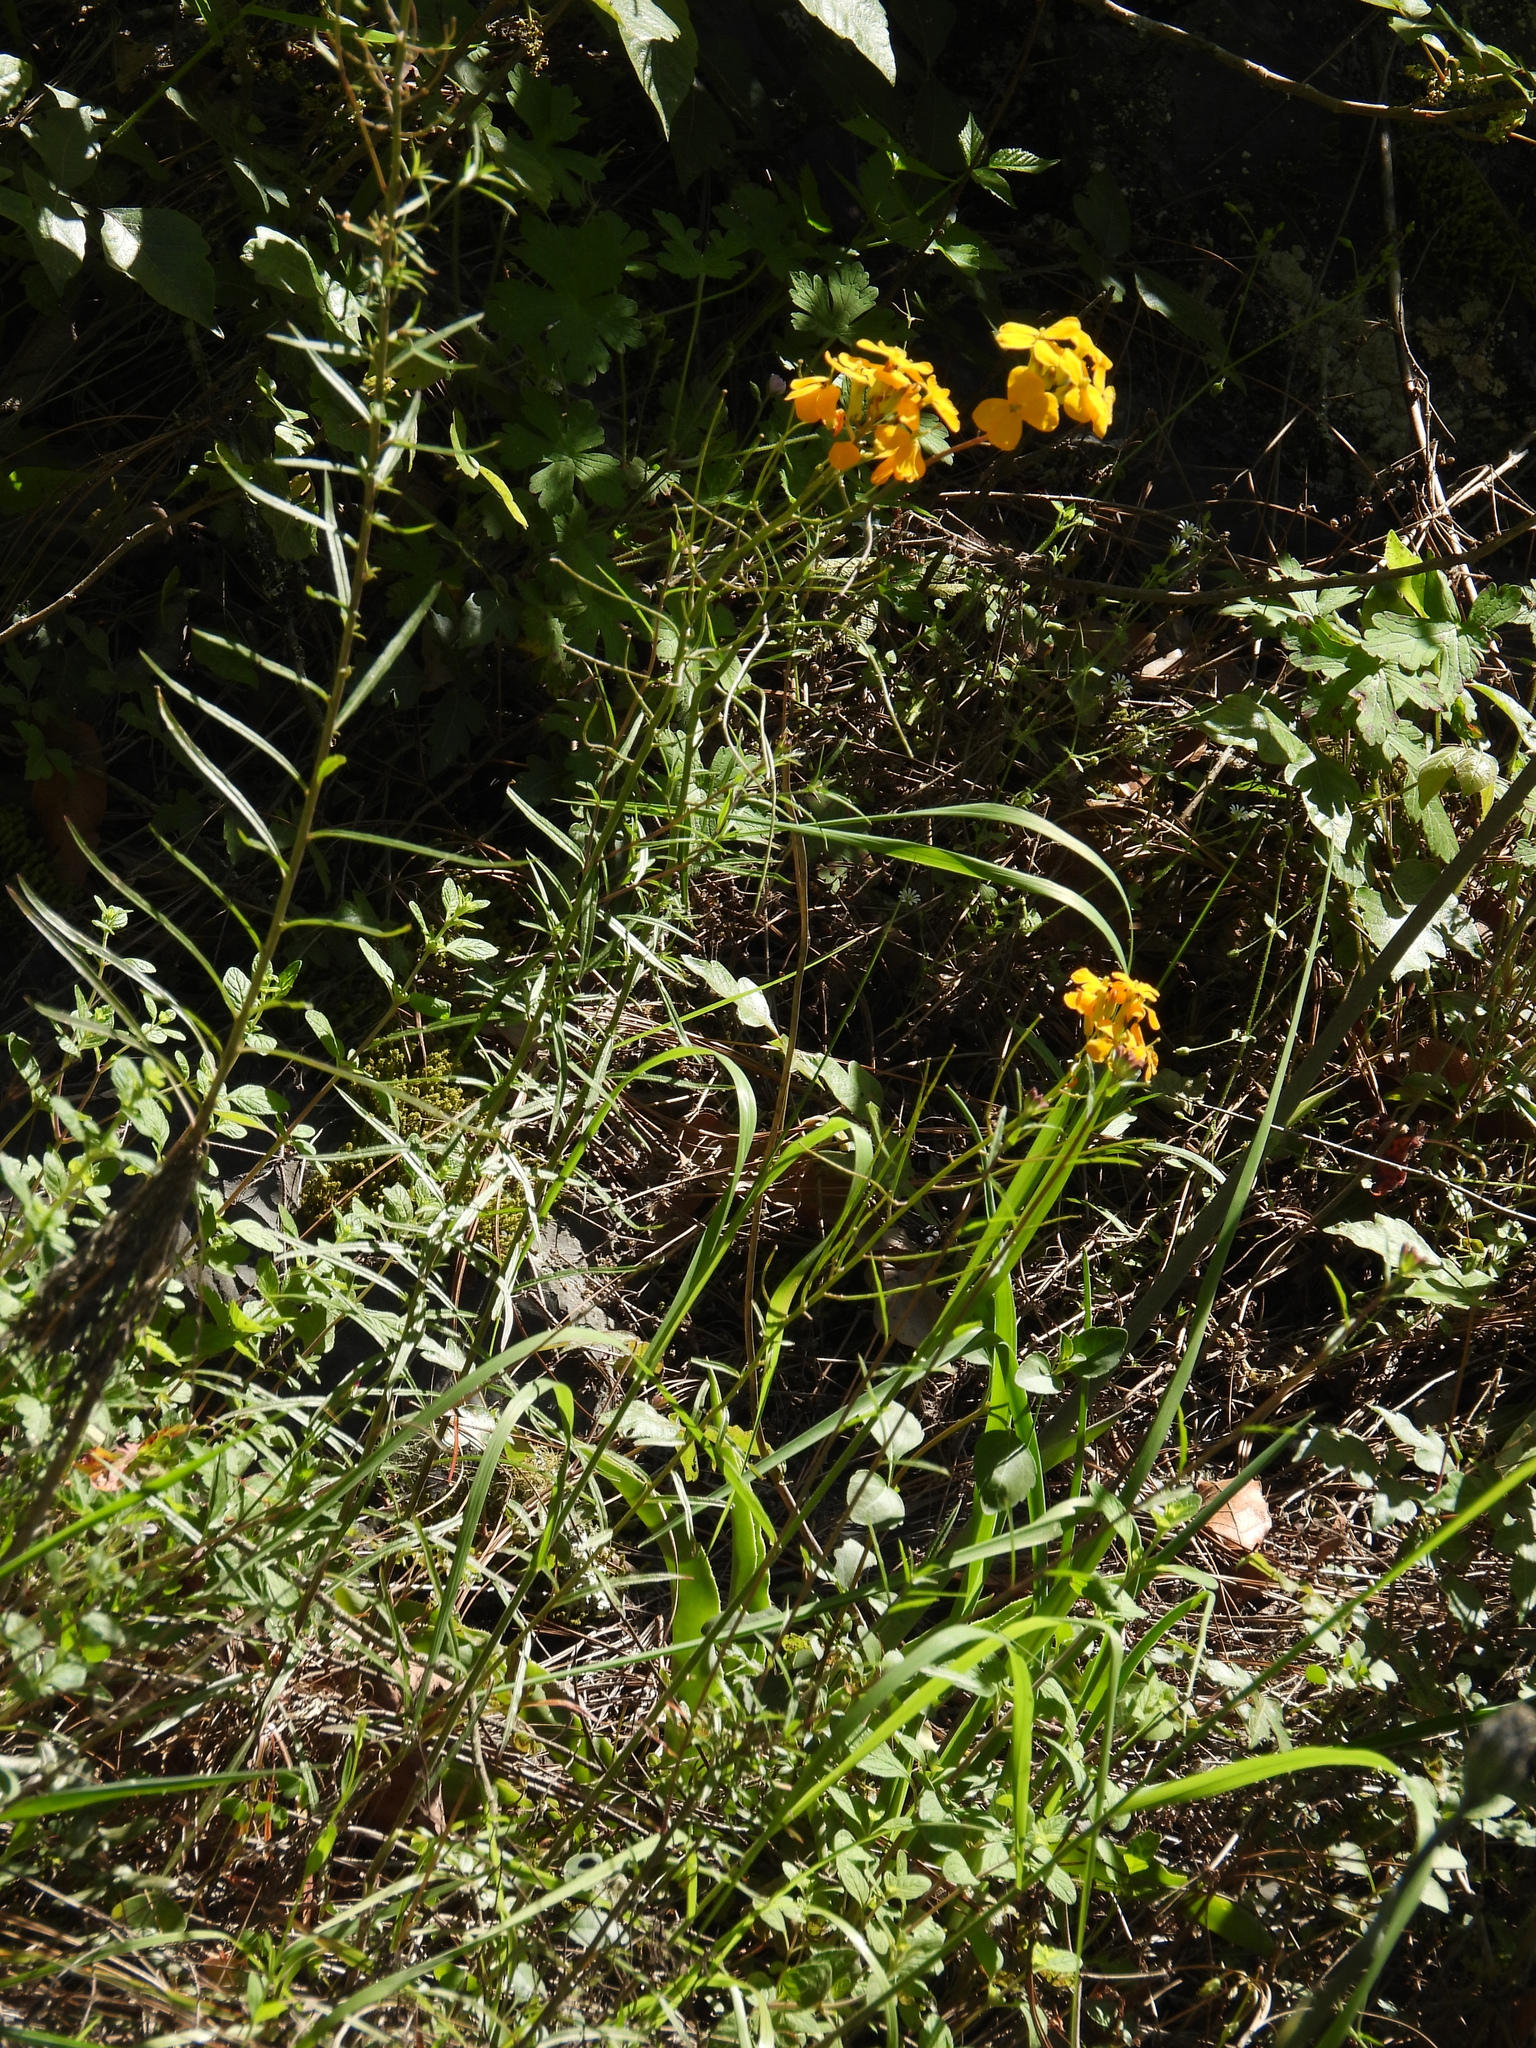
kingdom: Plantae
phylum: Tracheophyta
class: Magnoliopsida
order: Brassicales
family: Brassicaceae
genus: Erysimum
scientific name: Erysimum capitatum
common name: Western wallflower
